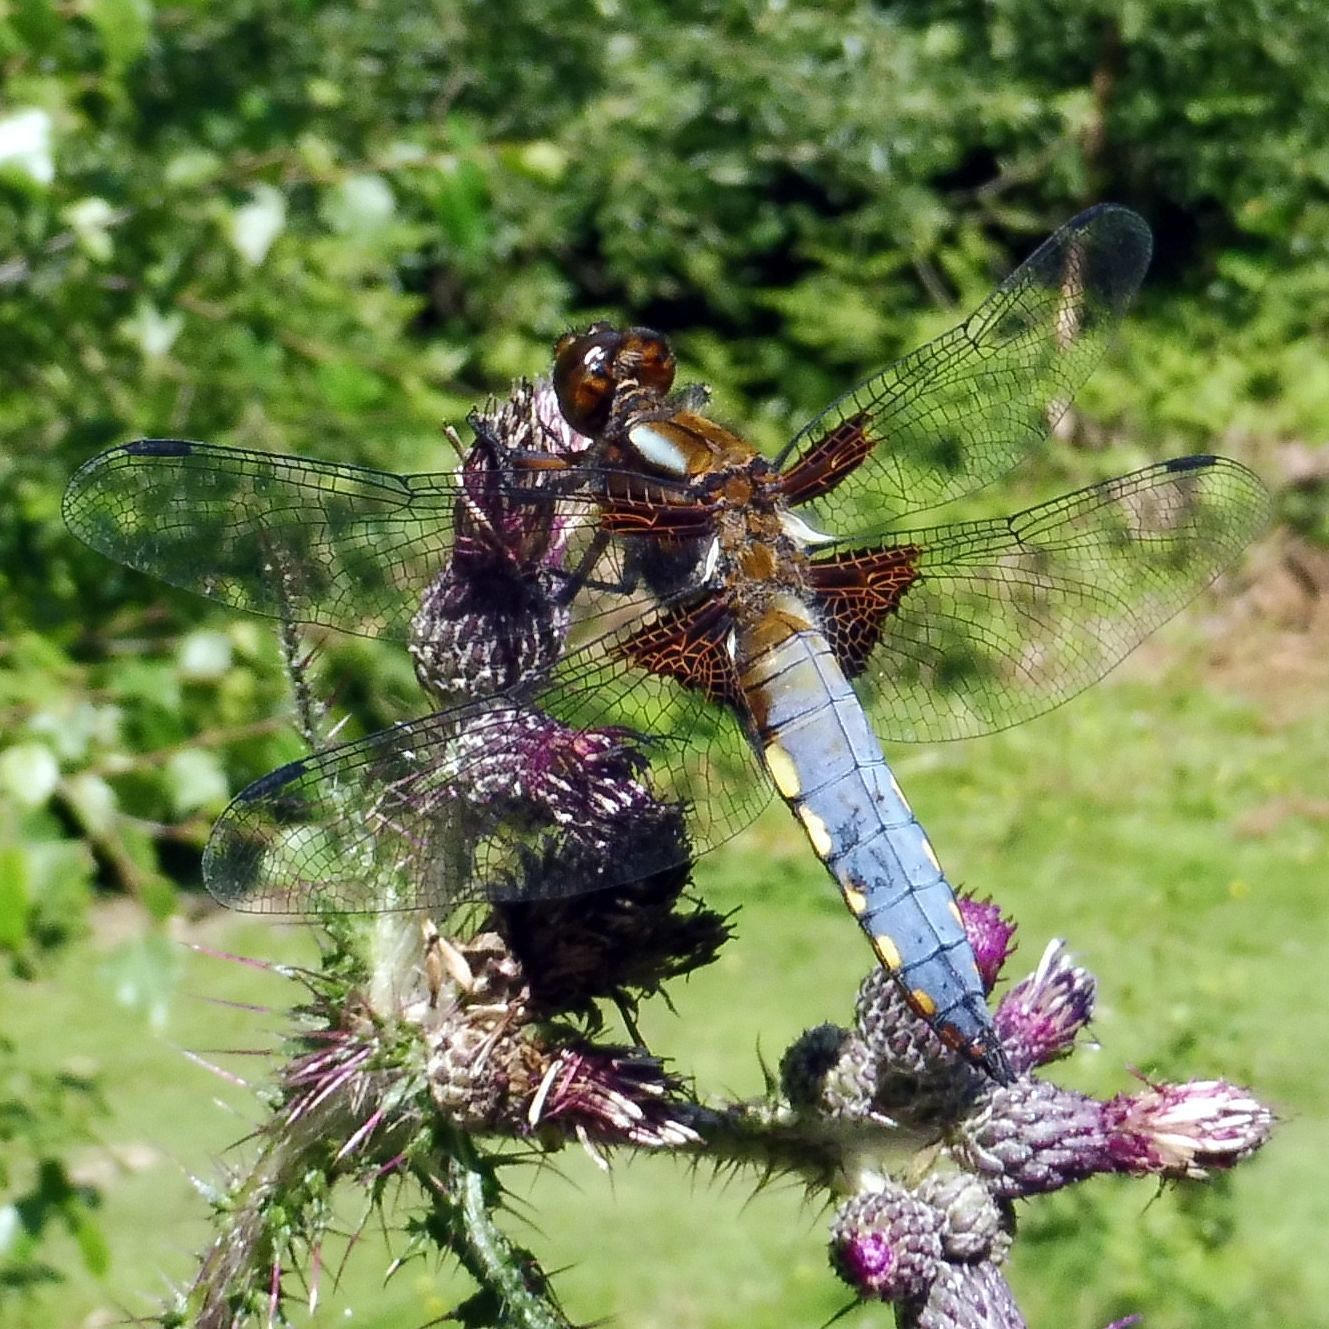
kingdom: Animalia
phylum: Arthropoda
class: Insecta
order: Odonata
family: Libellulidae
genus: Libellula
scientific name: Libellula depressa
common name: Broad-bodied chaser
